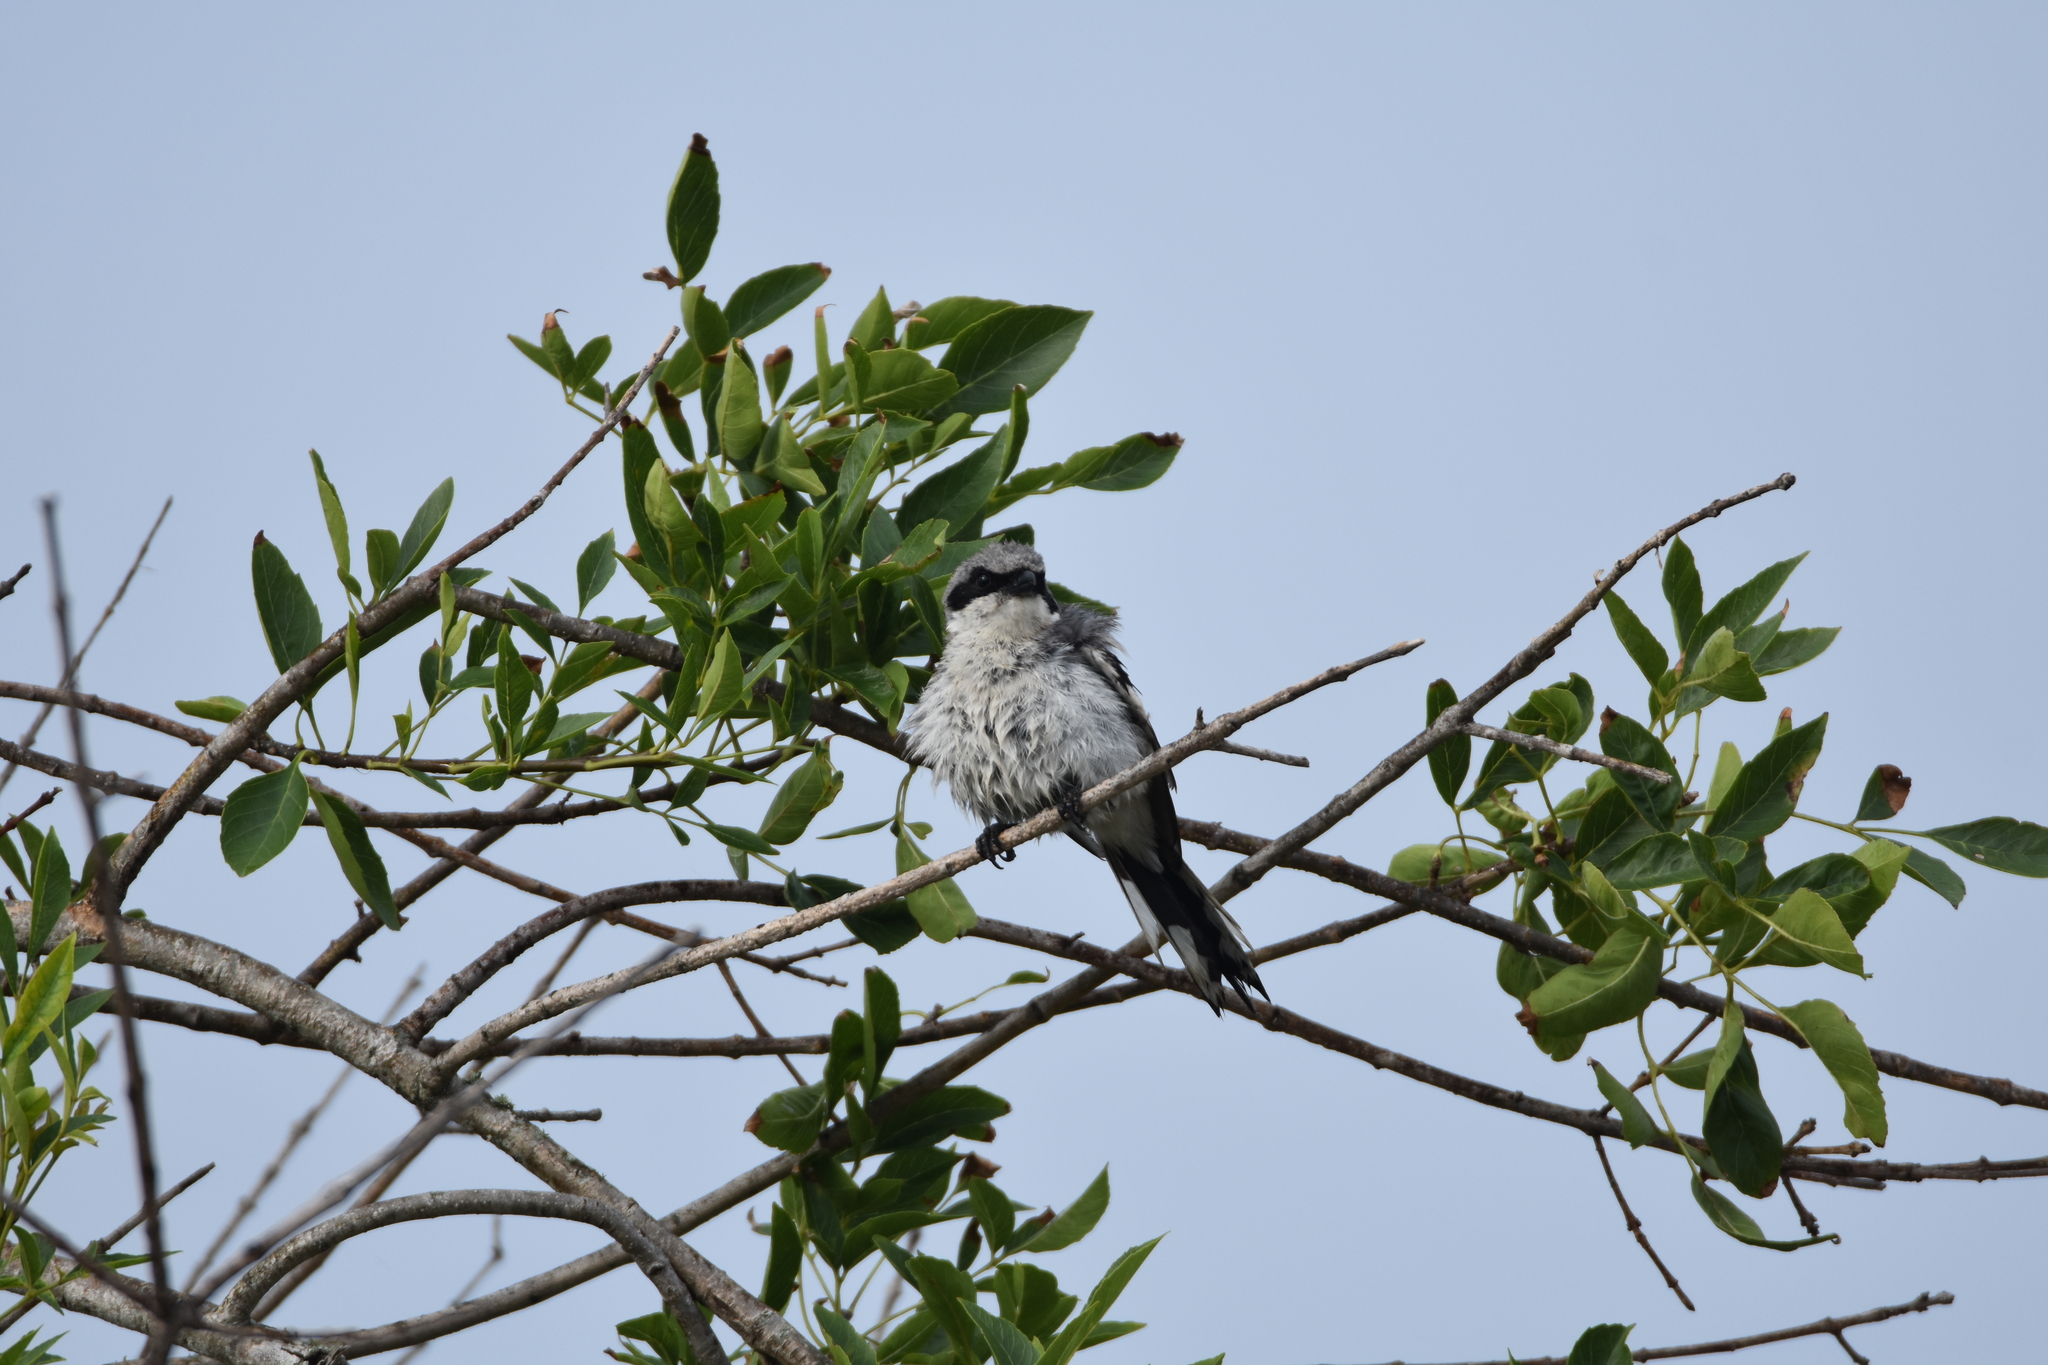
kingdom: Animalia
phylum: Chordata
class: Aves
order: Passeriformes
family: Laniidae
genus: Lanius
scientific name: Lanius ludovicianus
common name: Loggerhead shrike
